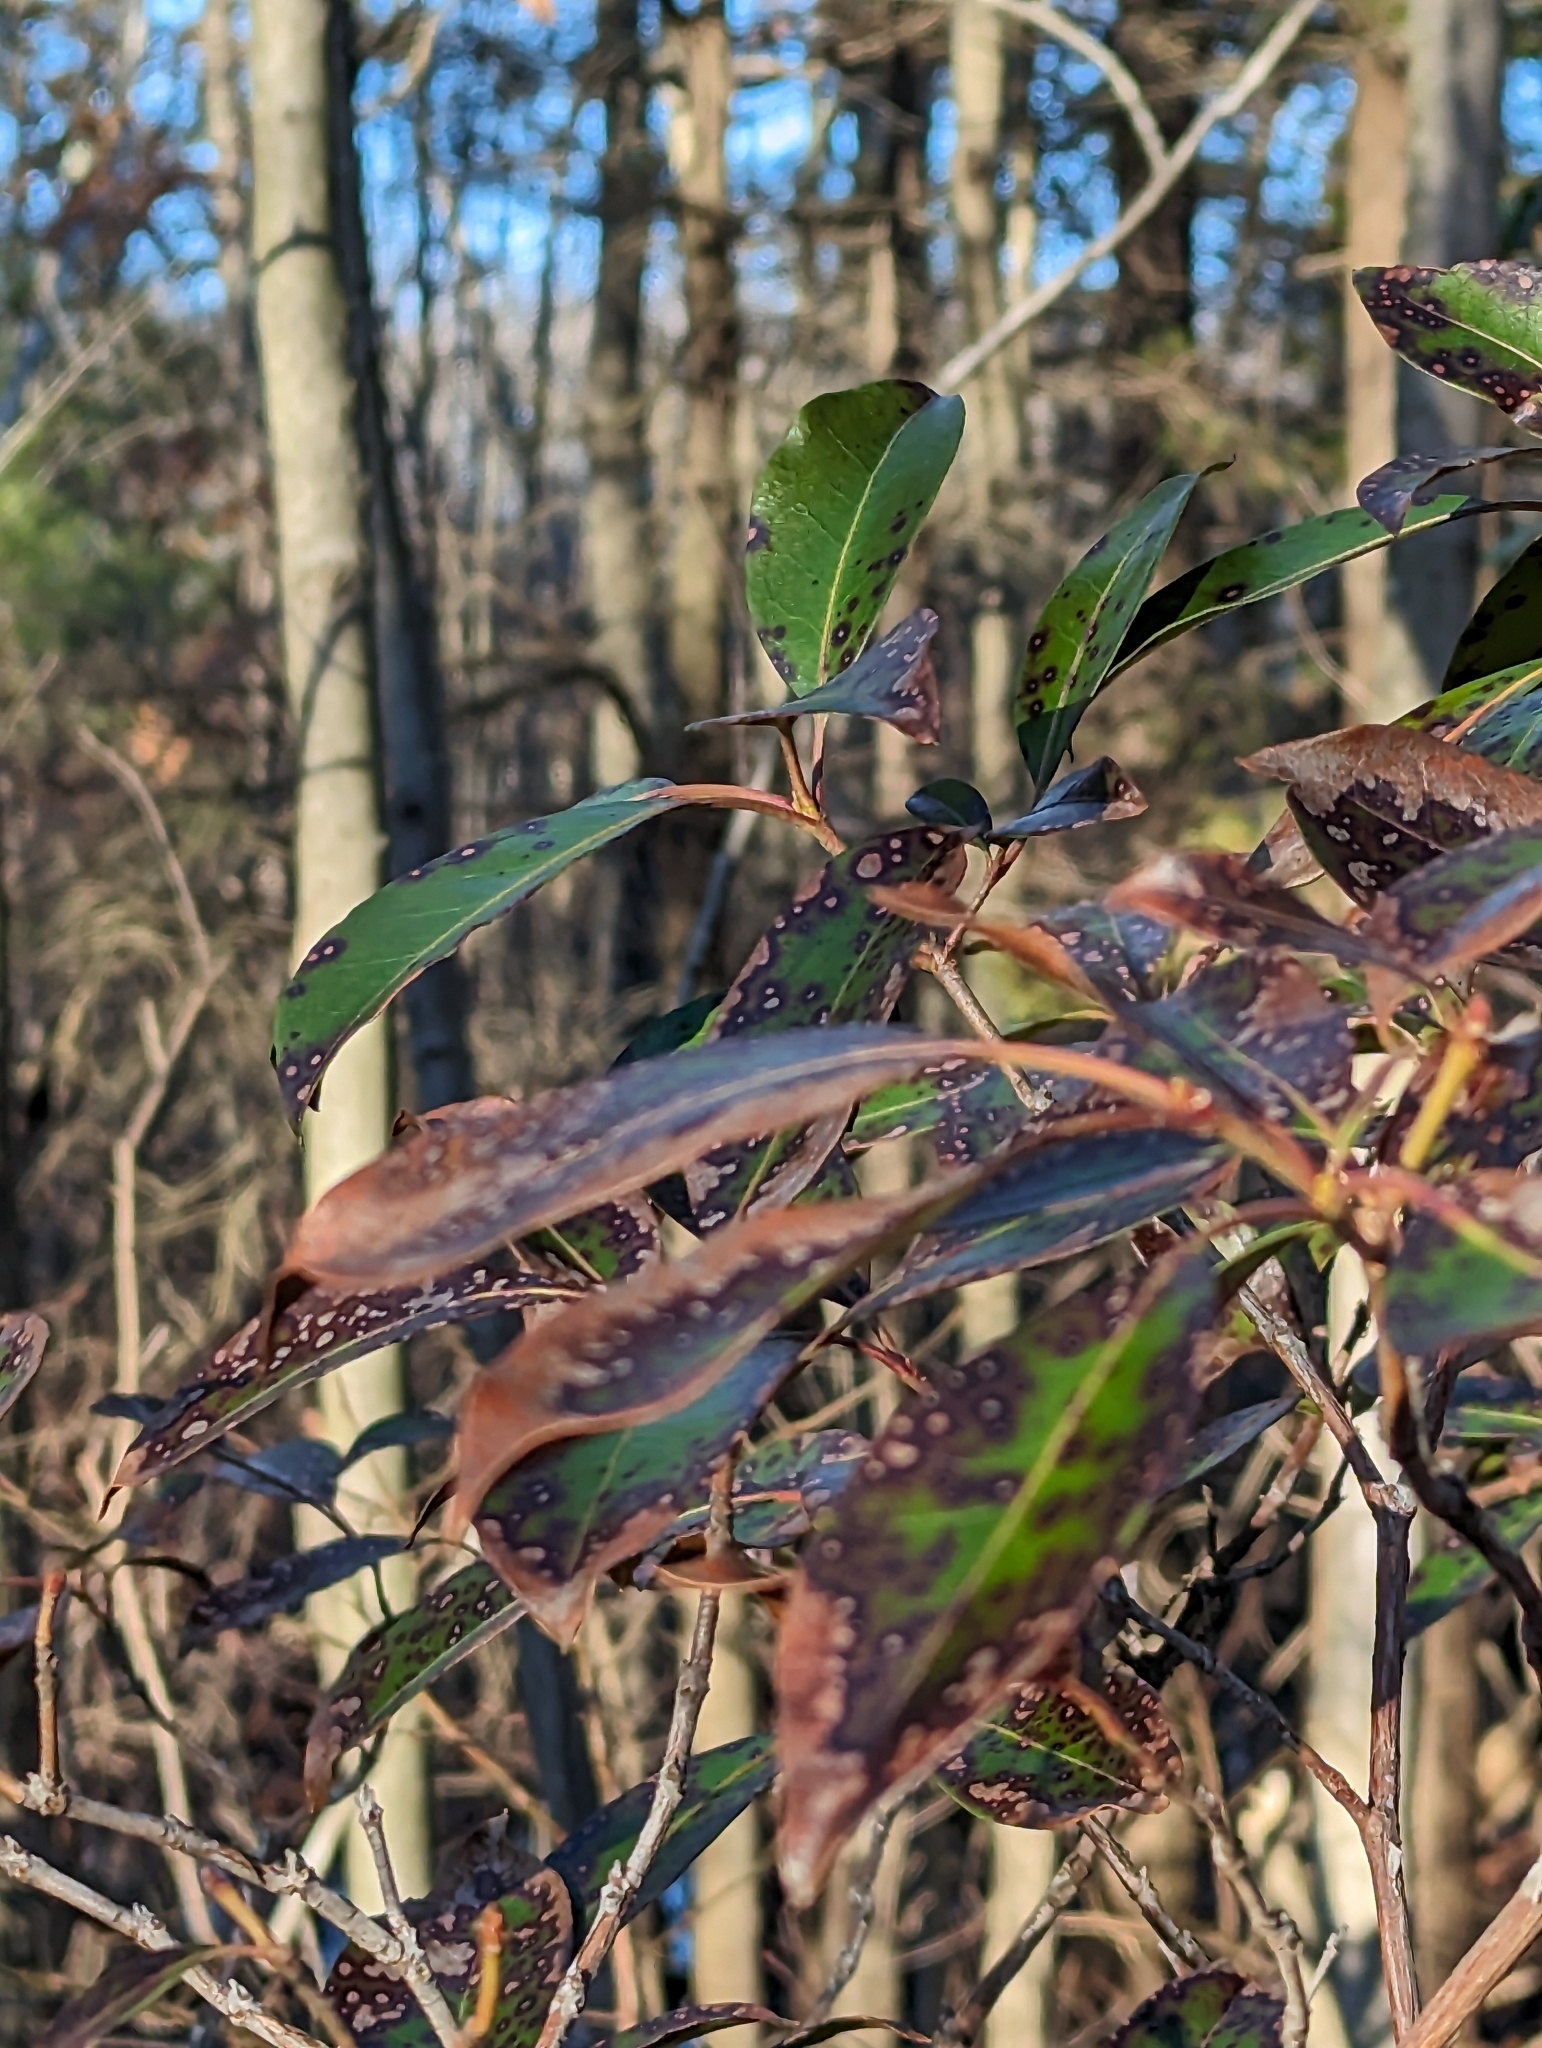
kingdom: Plantae
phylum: Tracheophyta
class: Magnoliopsida
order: Ericales
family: Ericaceae
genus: Kalmia
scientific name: Kalmia latifolia
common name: Mountain-laurel
